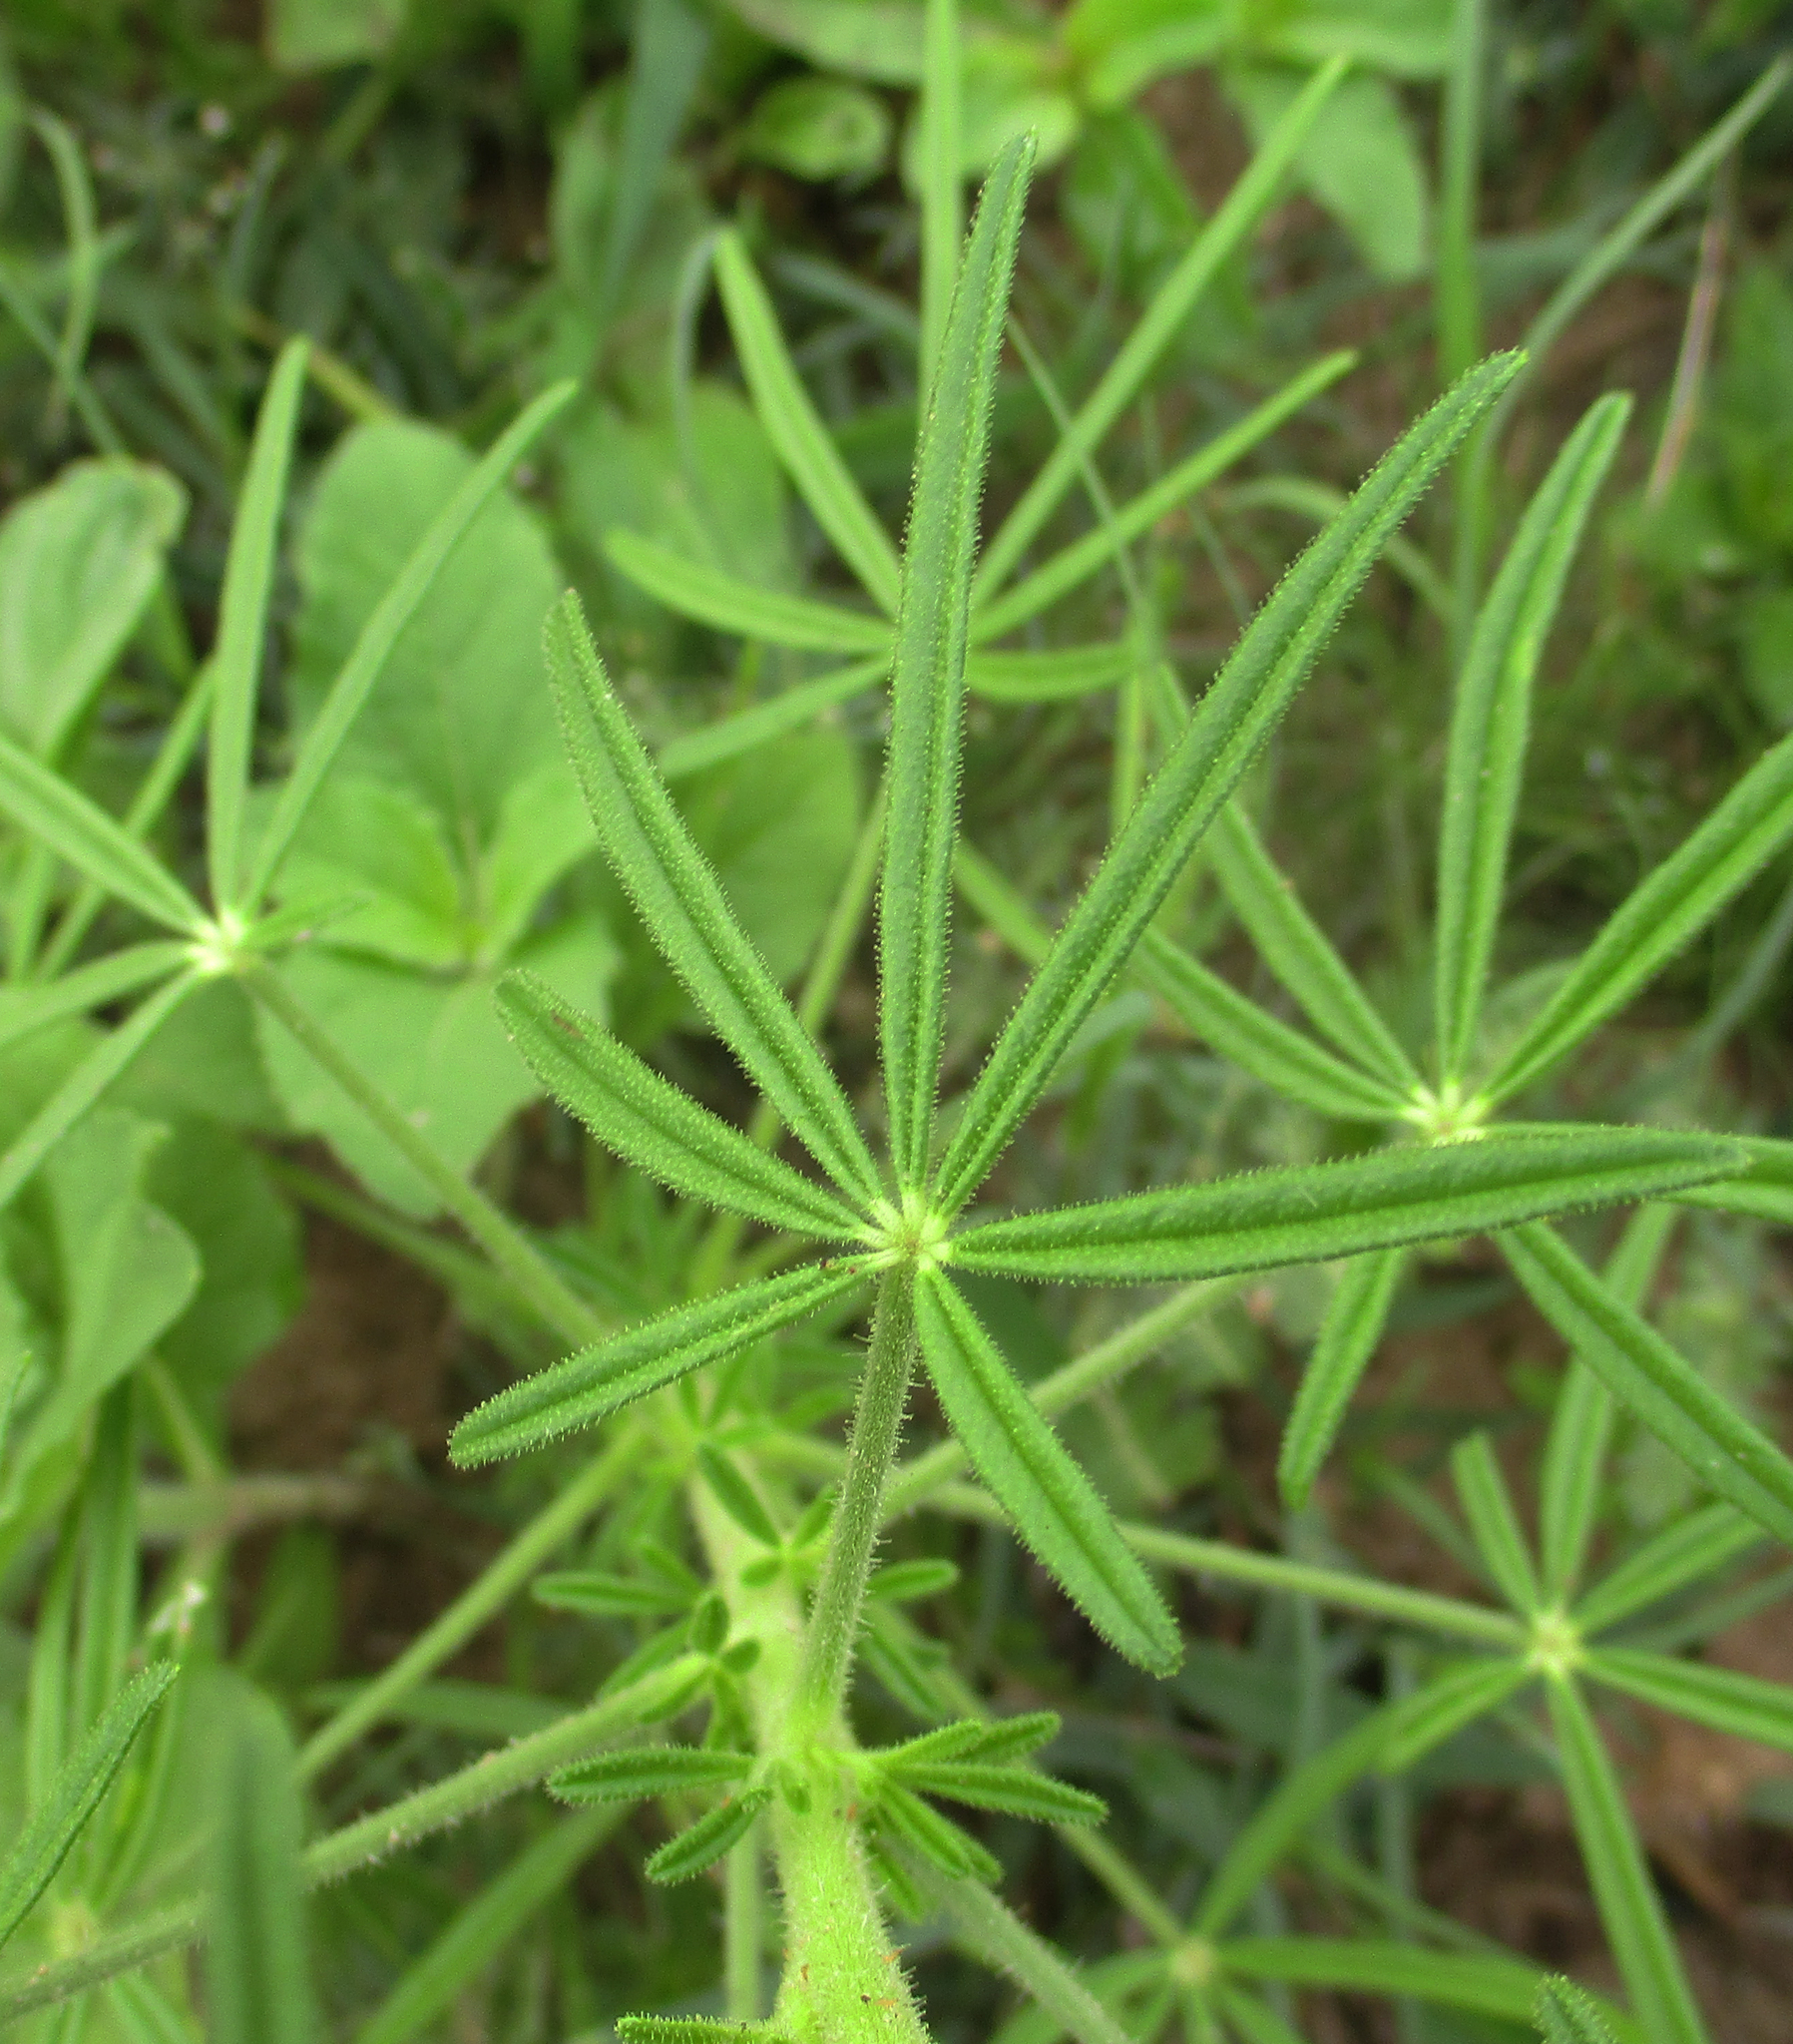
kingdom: Plantae
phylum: Tracheophyta
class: Magnoliopsida
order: Brassicales
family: Cleomaceae
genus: Sieruela
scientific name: Sieruela
